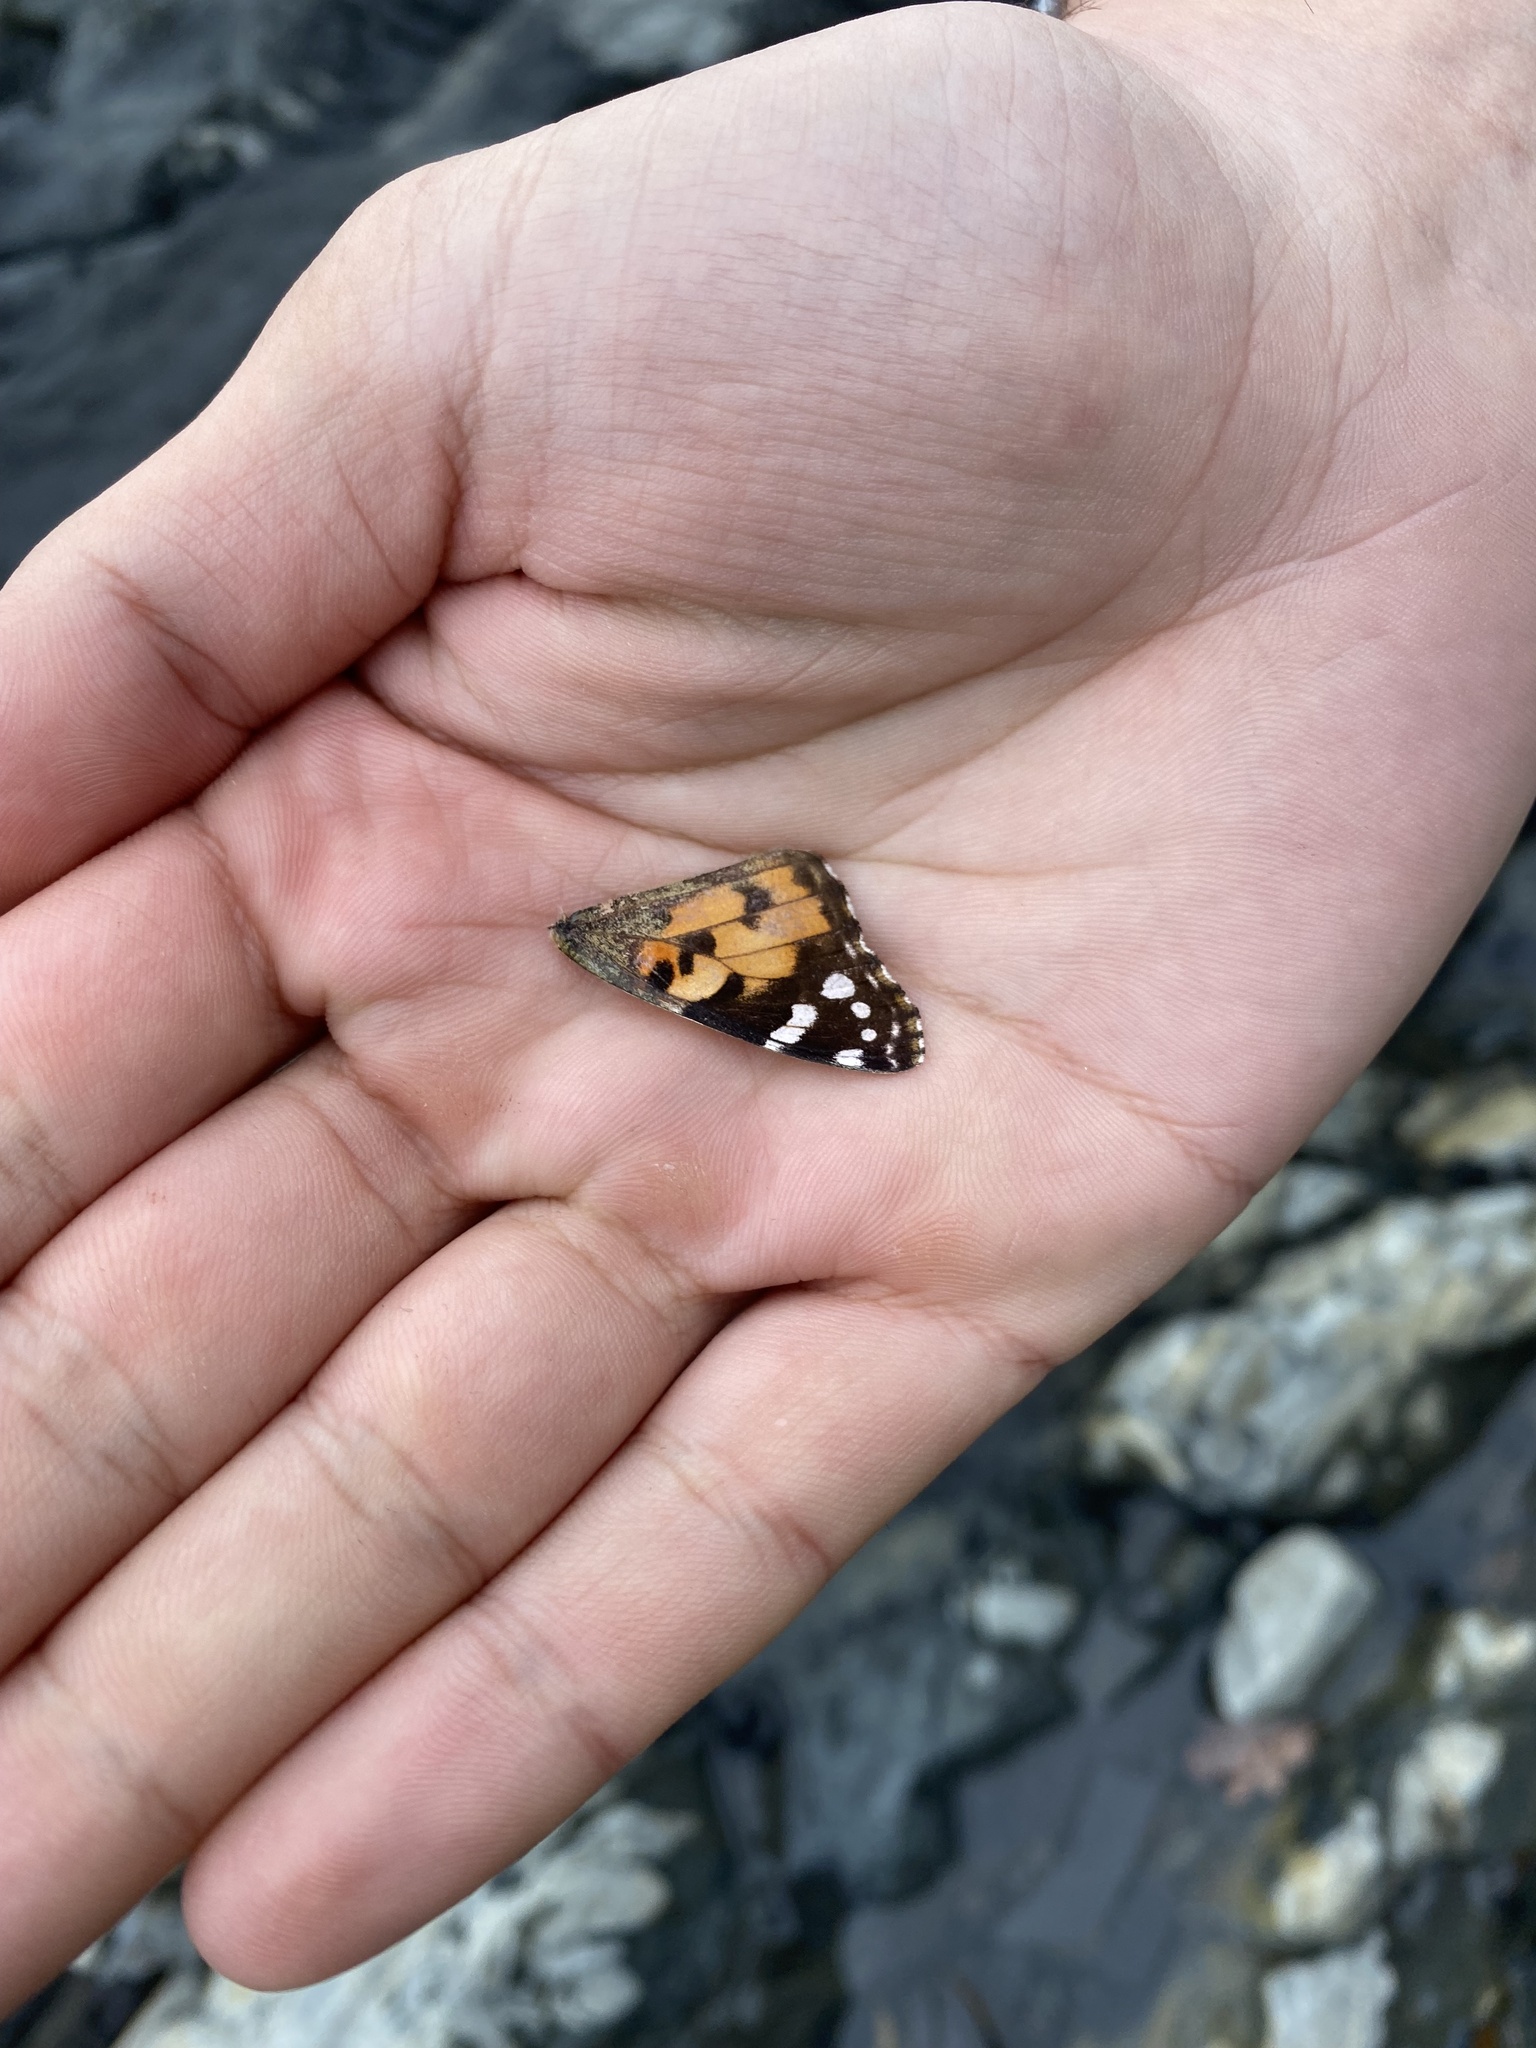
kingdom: Animalia
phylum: Arthropoda
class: Insecta
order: Lepidoptera
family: Nymphalidae
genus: Vanessa
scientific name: Vanessa cardui
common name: Painted lady
